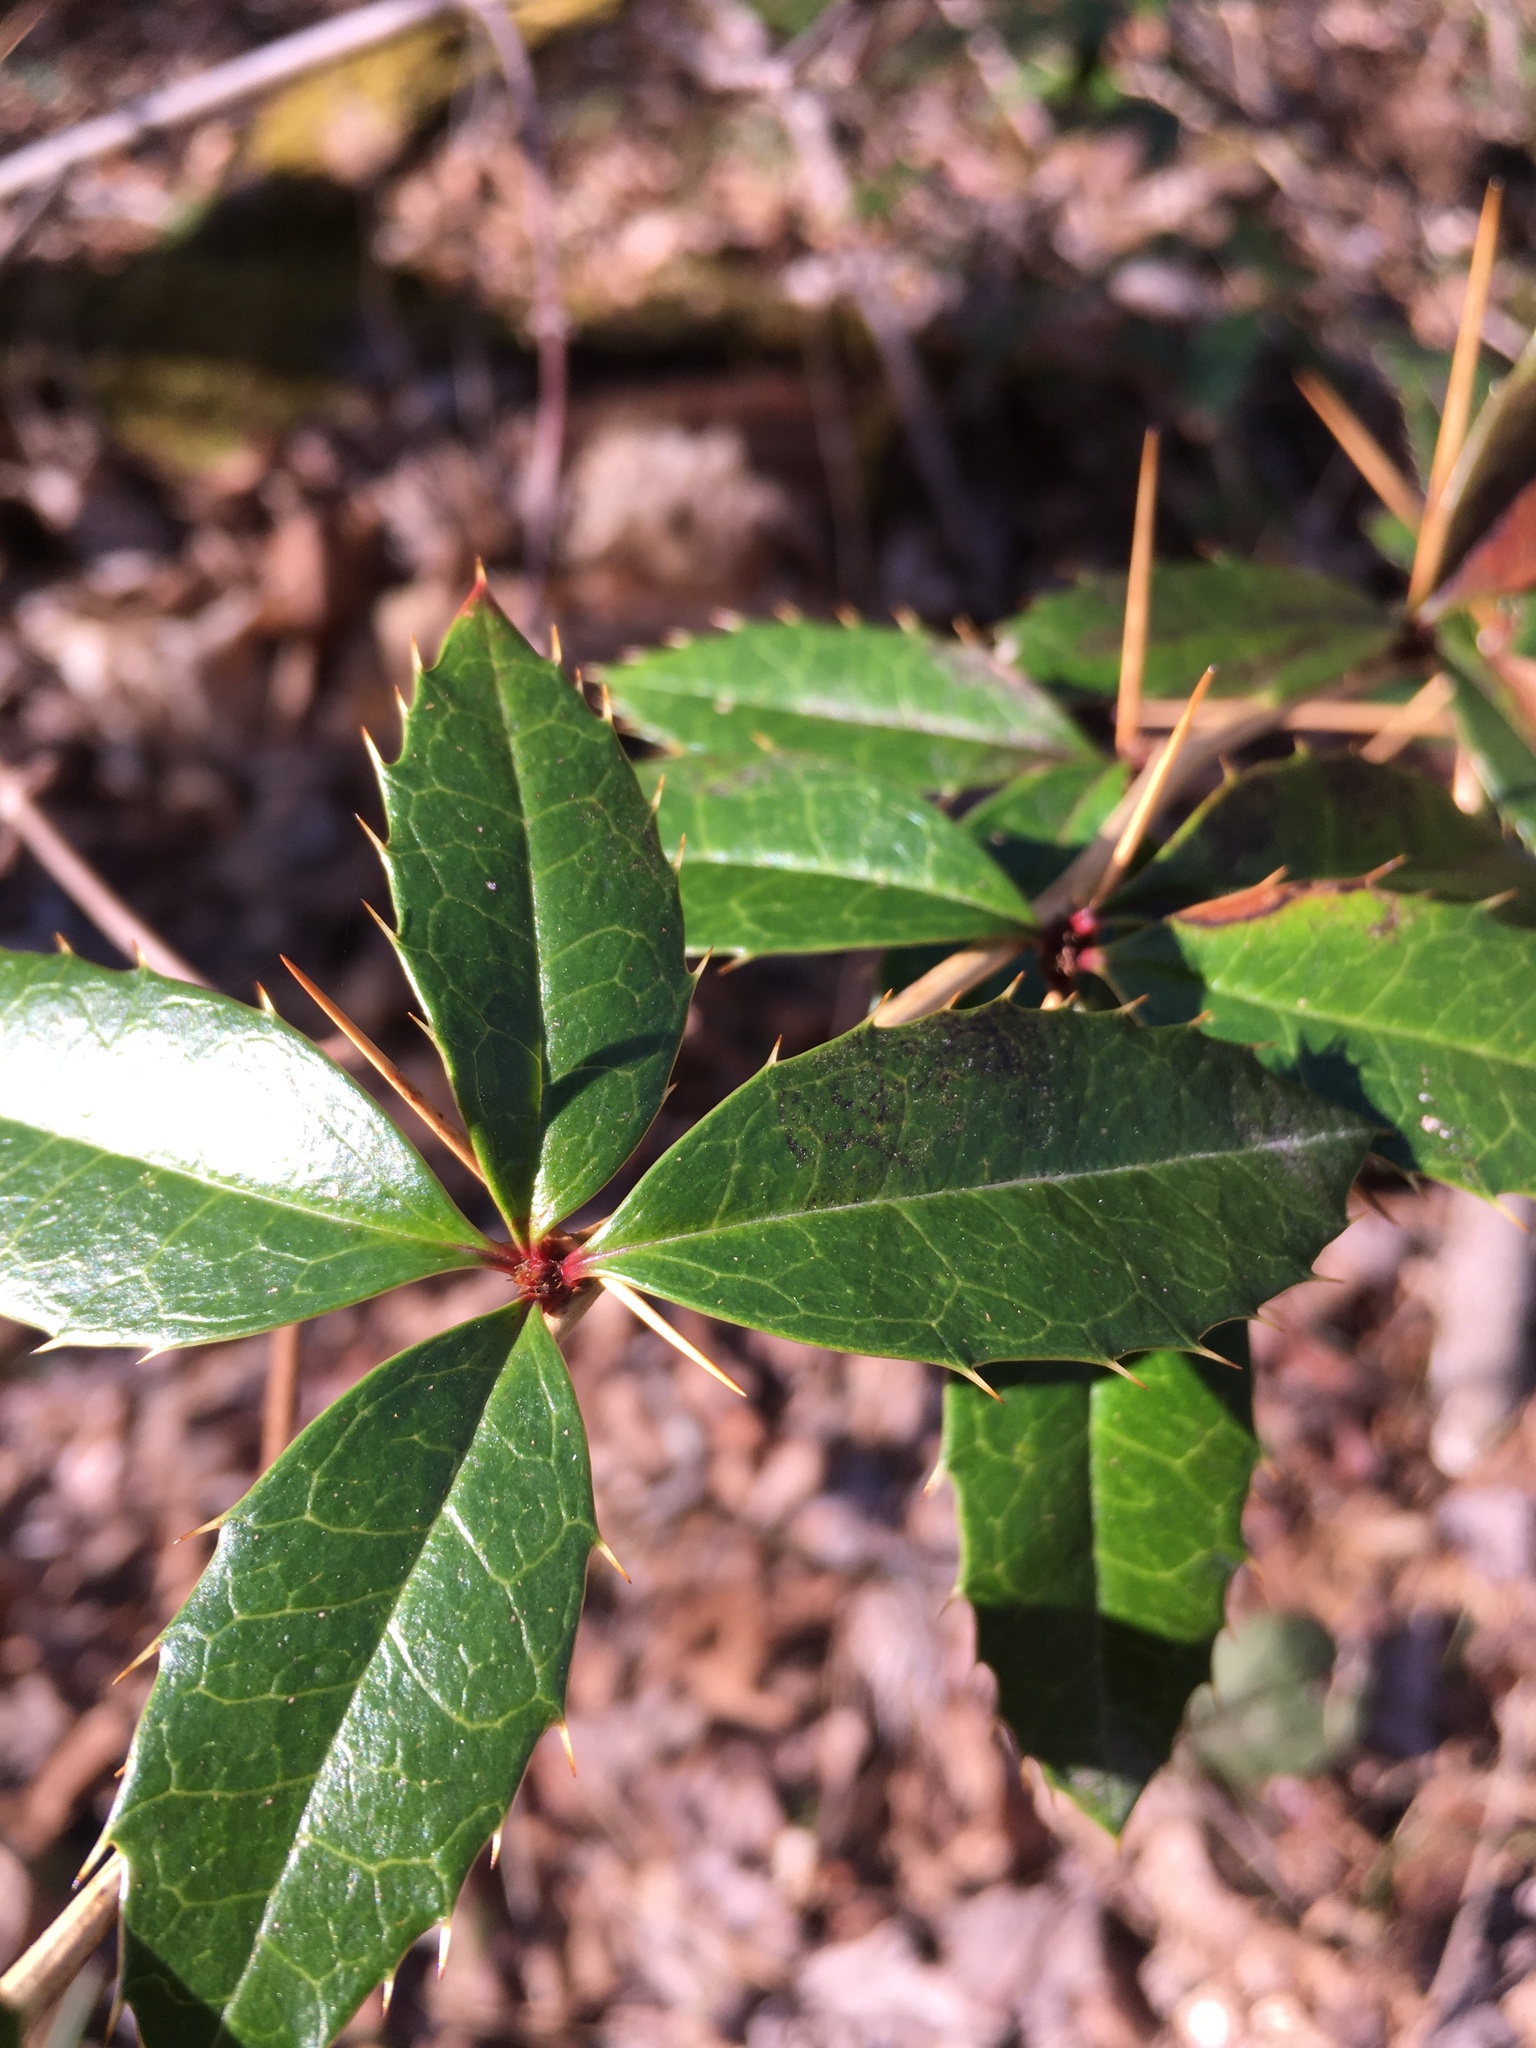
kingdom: Plantae
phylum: Tracheophyta
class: Magnoliopsida
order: Ranunculales
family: Berberidaceae
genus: Berberis
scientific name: Berberis julianae
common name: Wintergreen barberry
